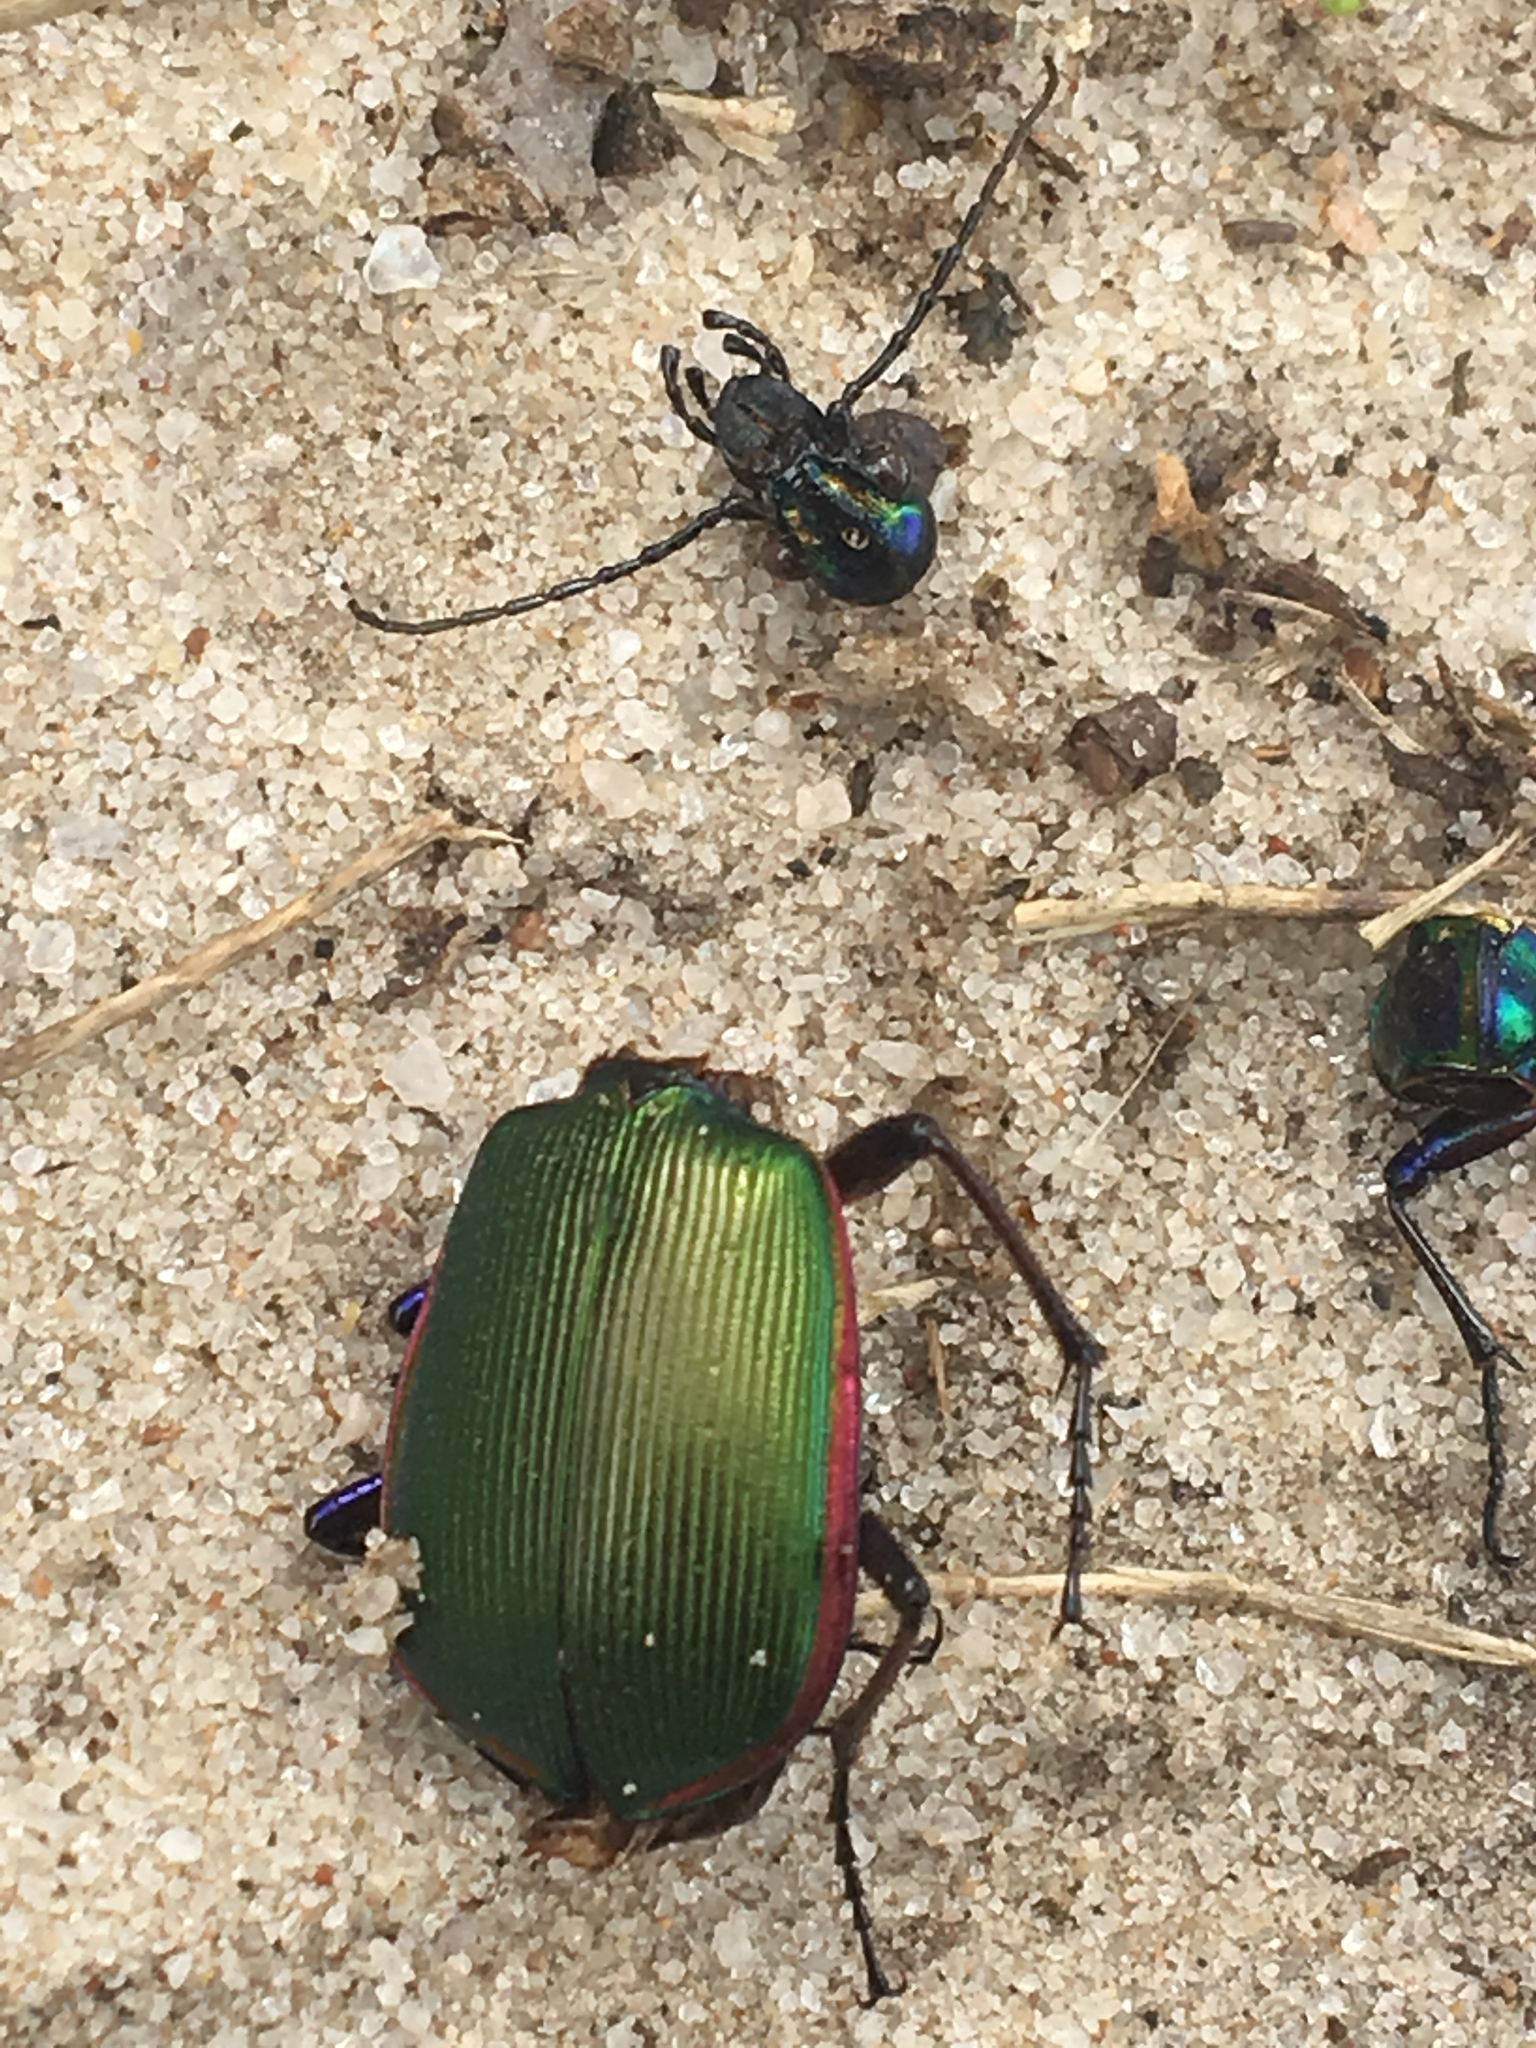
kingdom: Animalia
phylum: Arthropoda
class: Insecta
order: Coleoptera
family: Carabidae
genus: Calosoma
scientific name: Calosoma scrutator
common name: Fiery searcher beetle
